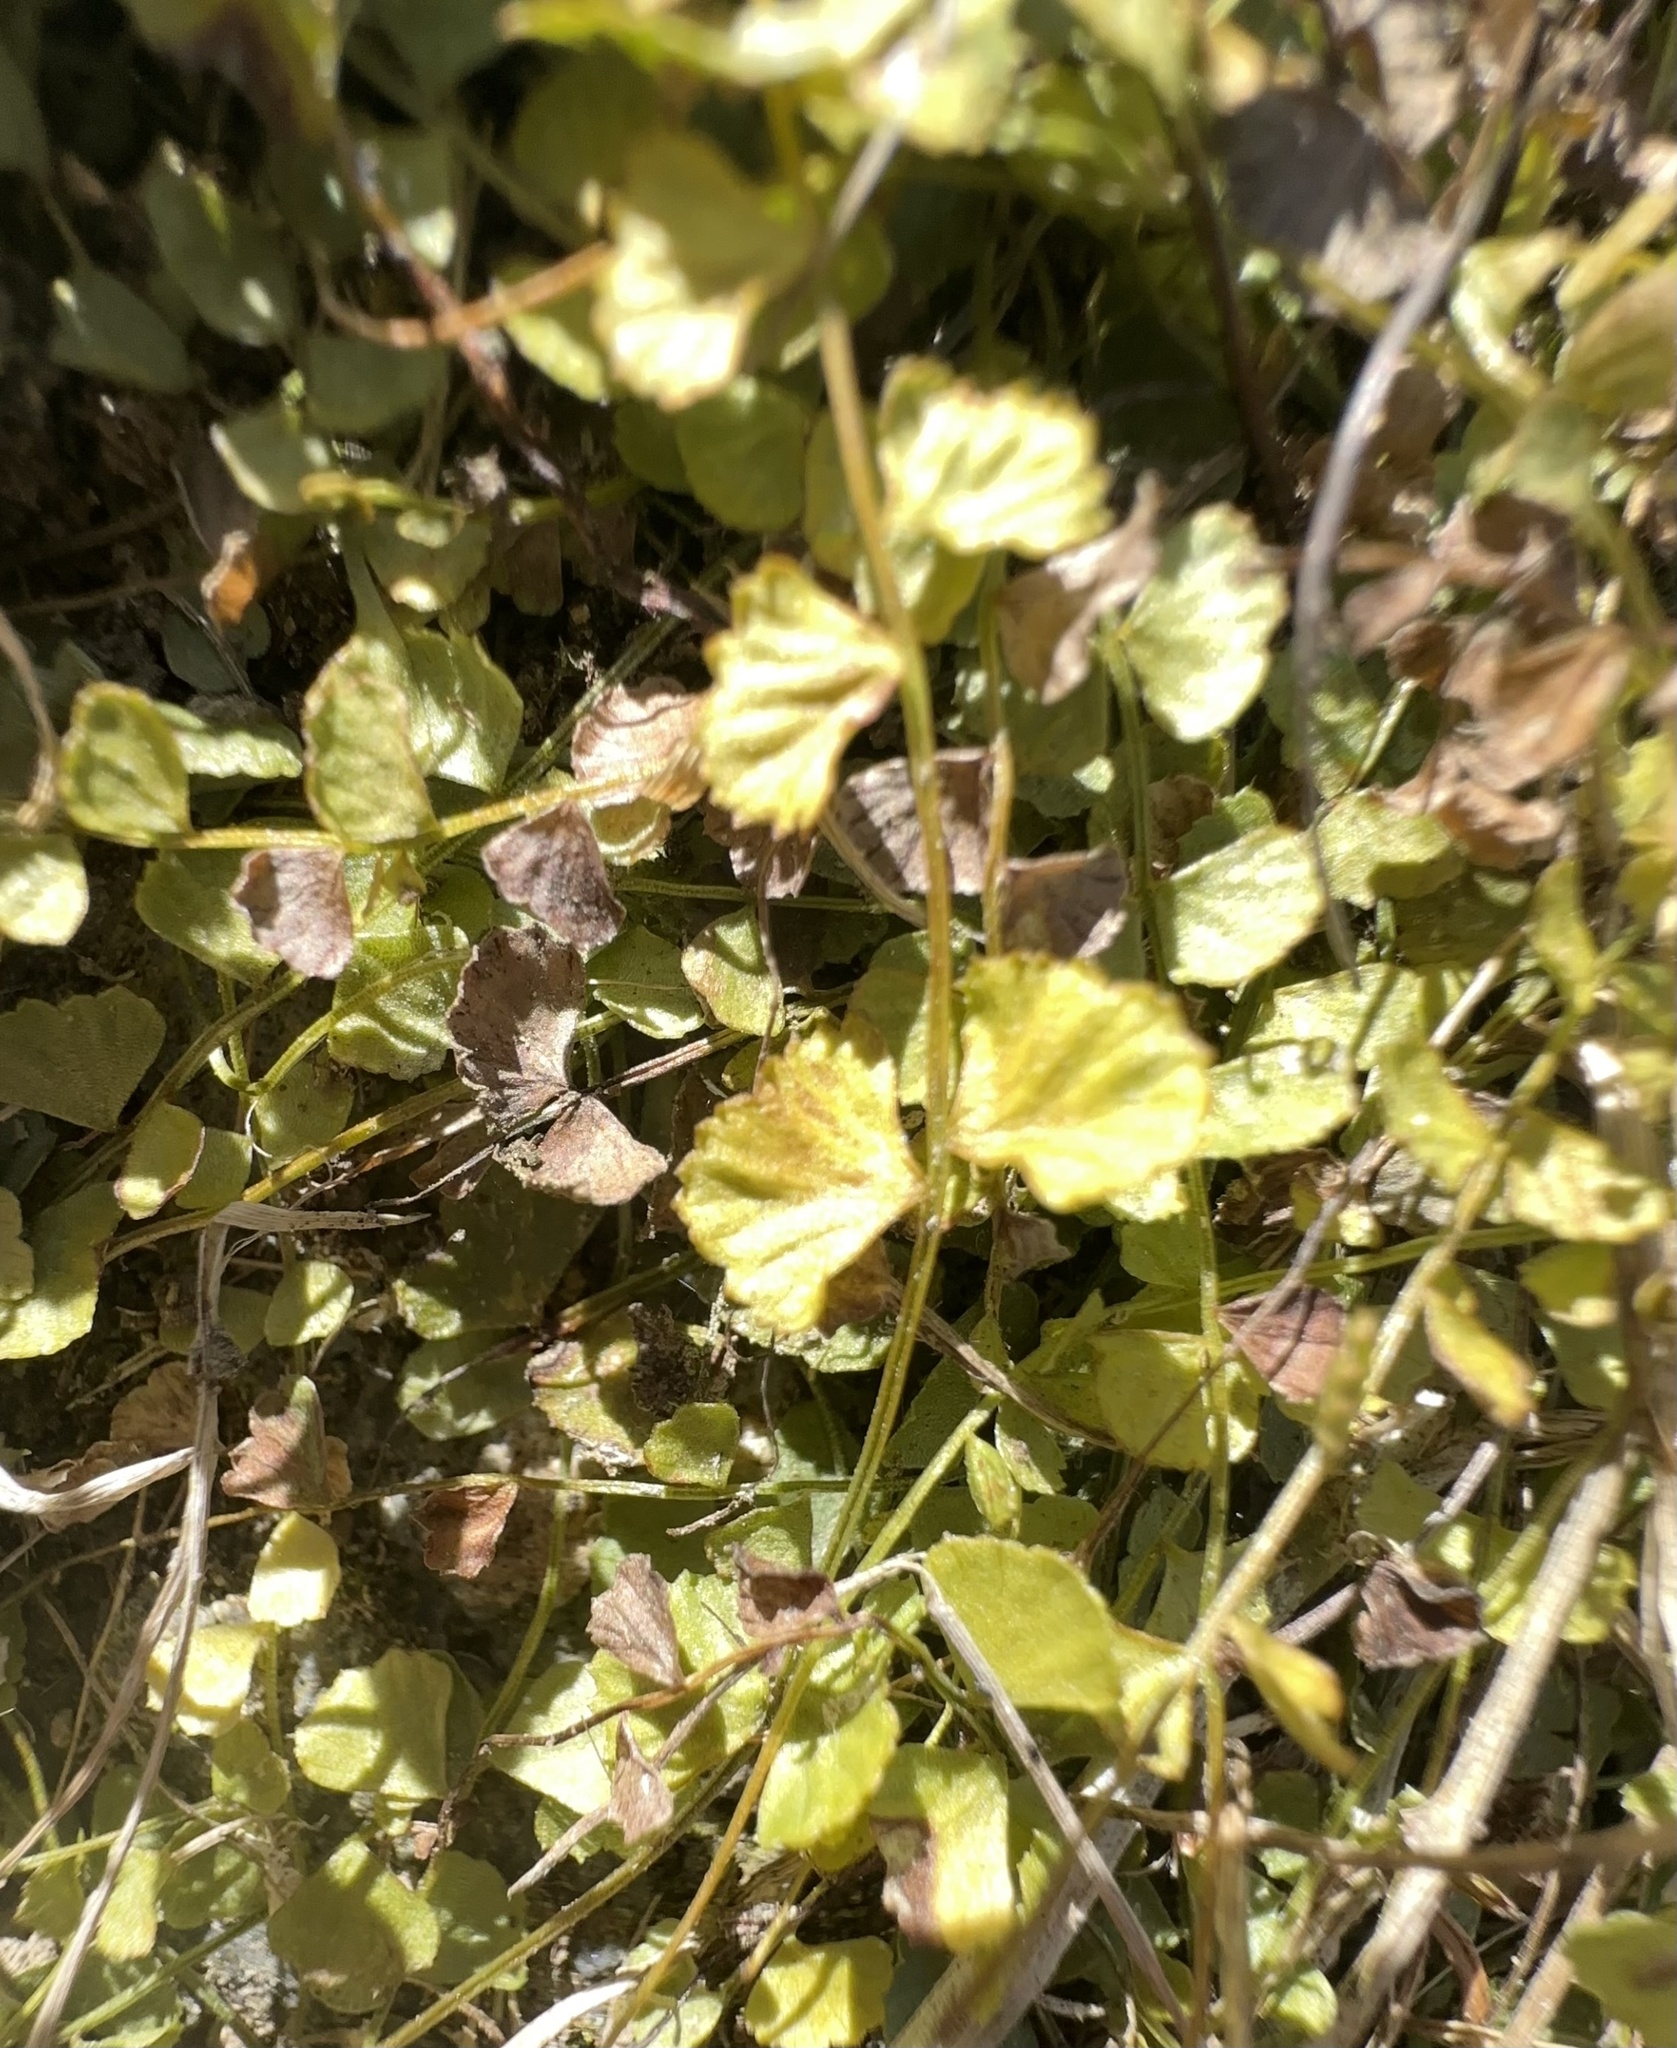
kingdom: Plantae
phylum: Tracheophyta
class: Polypodiopsida
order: Polypodiales
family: Aspleniaceae
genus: Asplenium
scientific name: Asplenium flabellifolium
